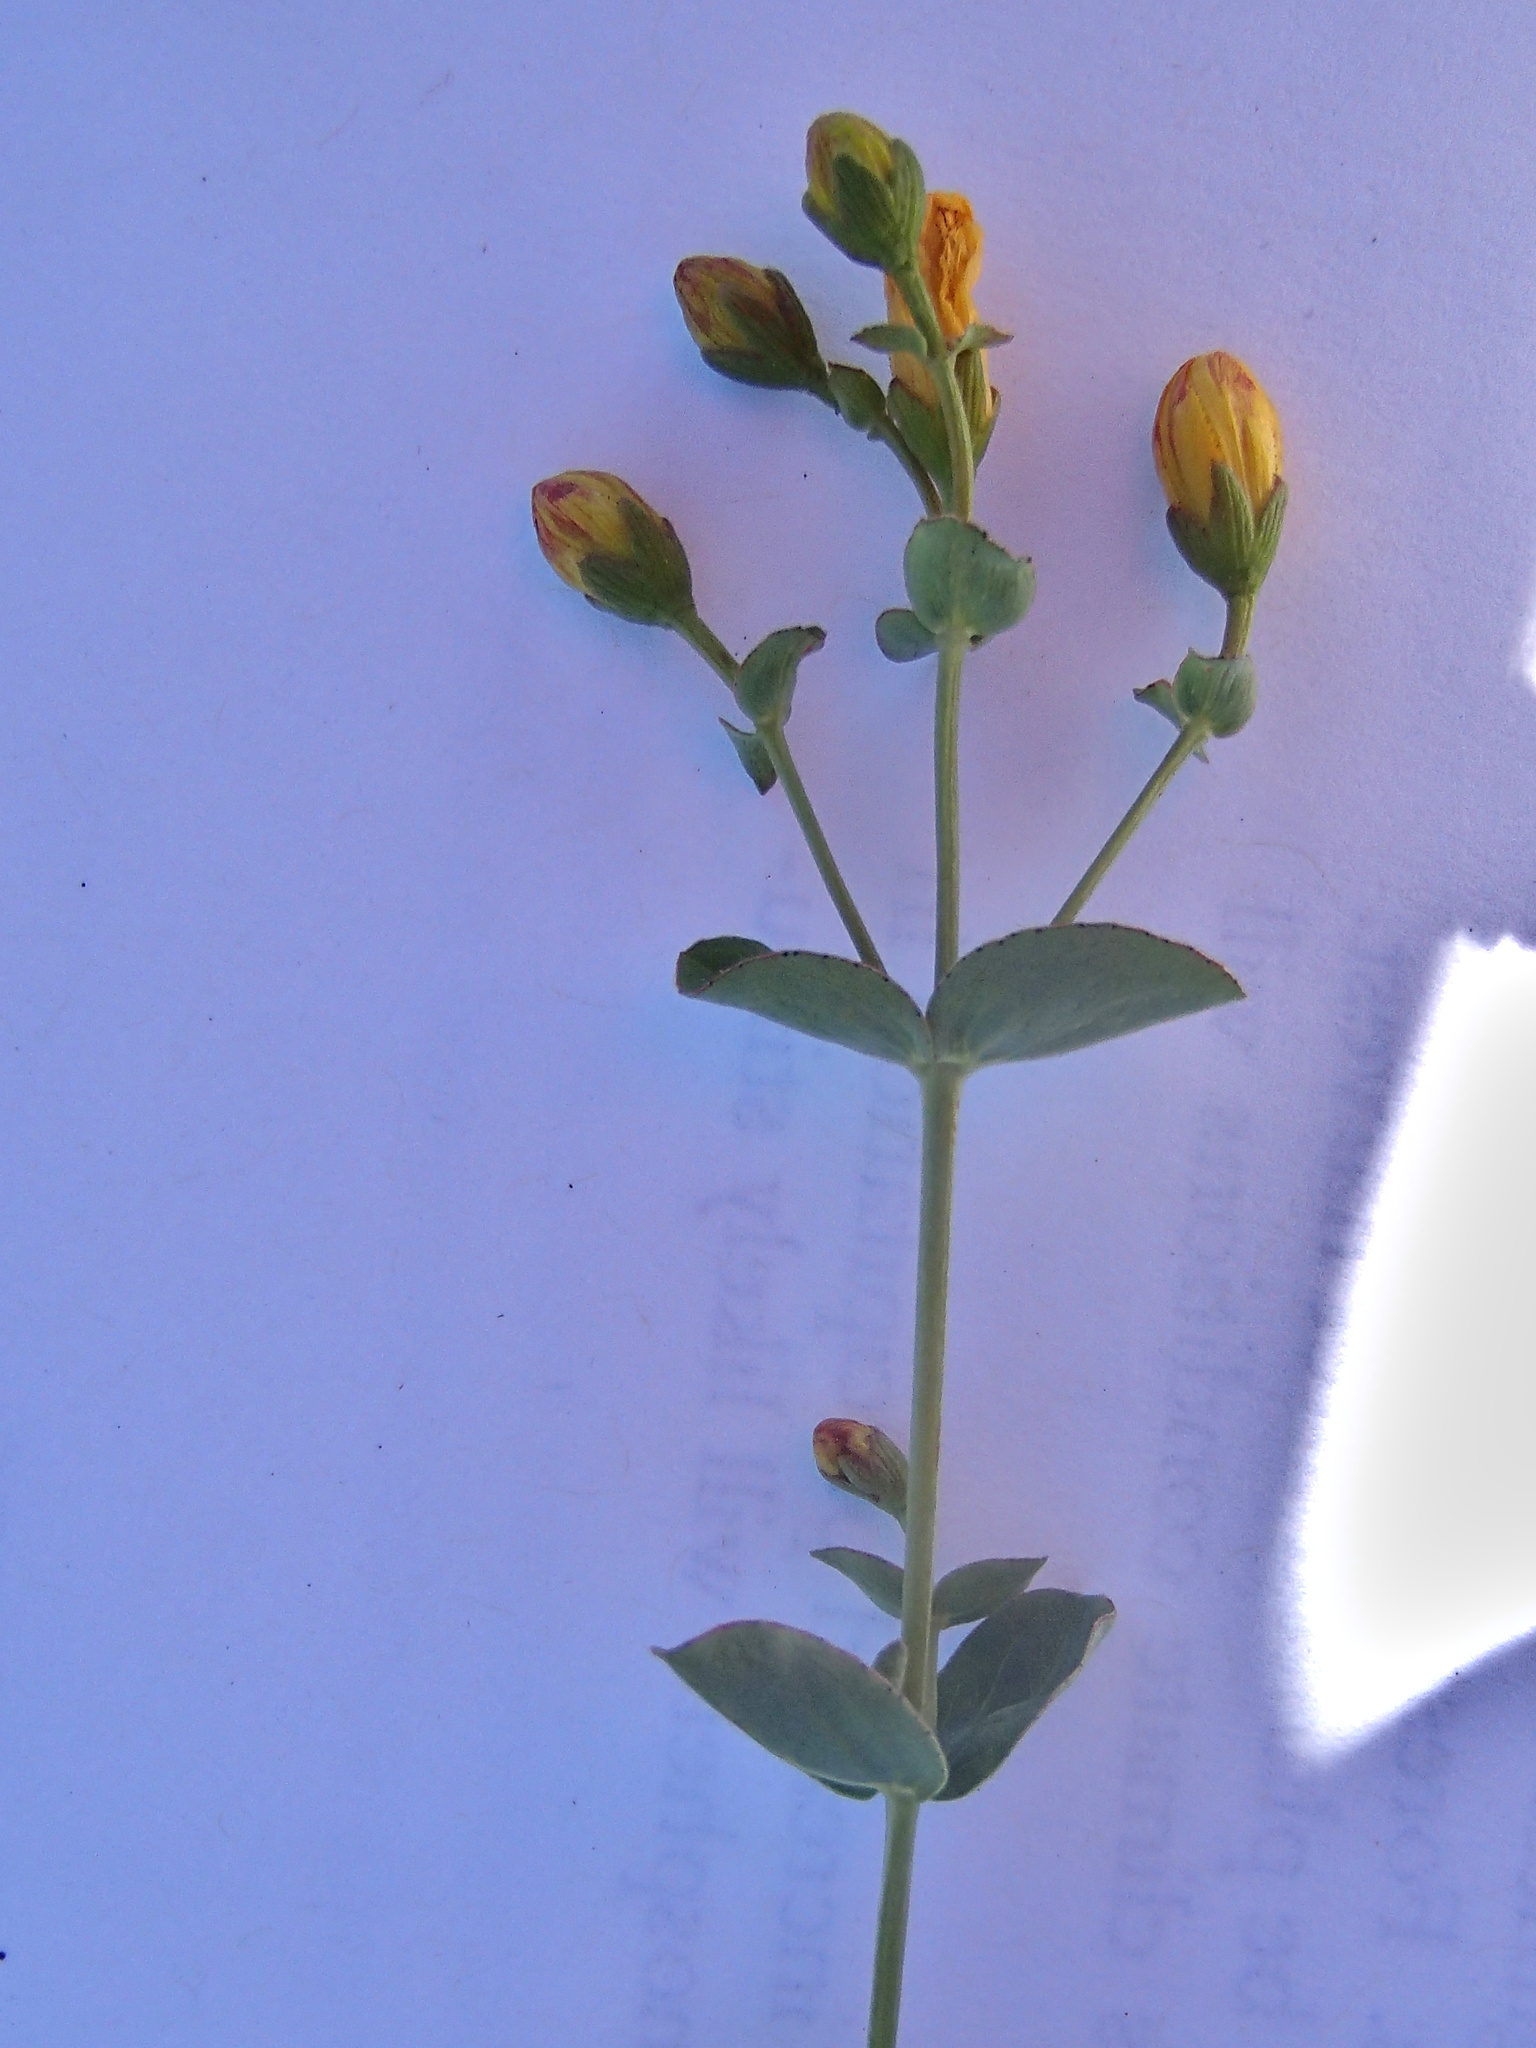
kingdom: Plantae
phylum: Tracheophyta
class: Magnoliopsida
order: Malpighiales
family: Hypericaceae
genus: Hypericum
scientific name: Hypericum scouleri
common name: Scouler's st. john's-wort
